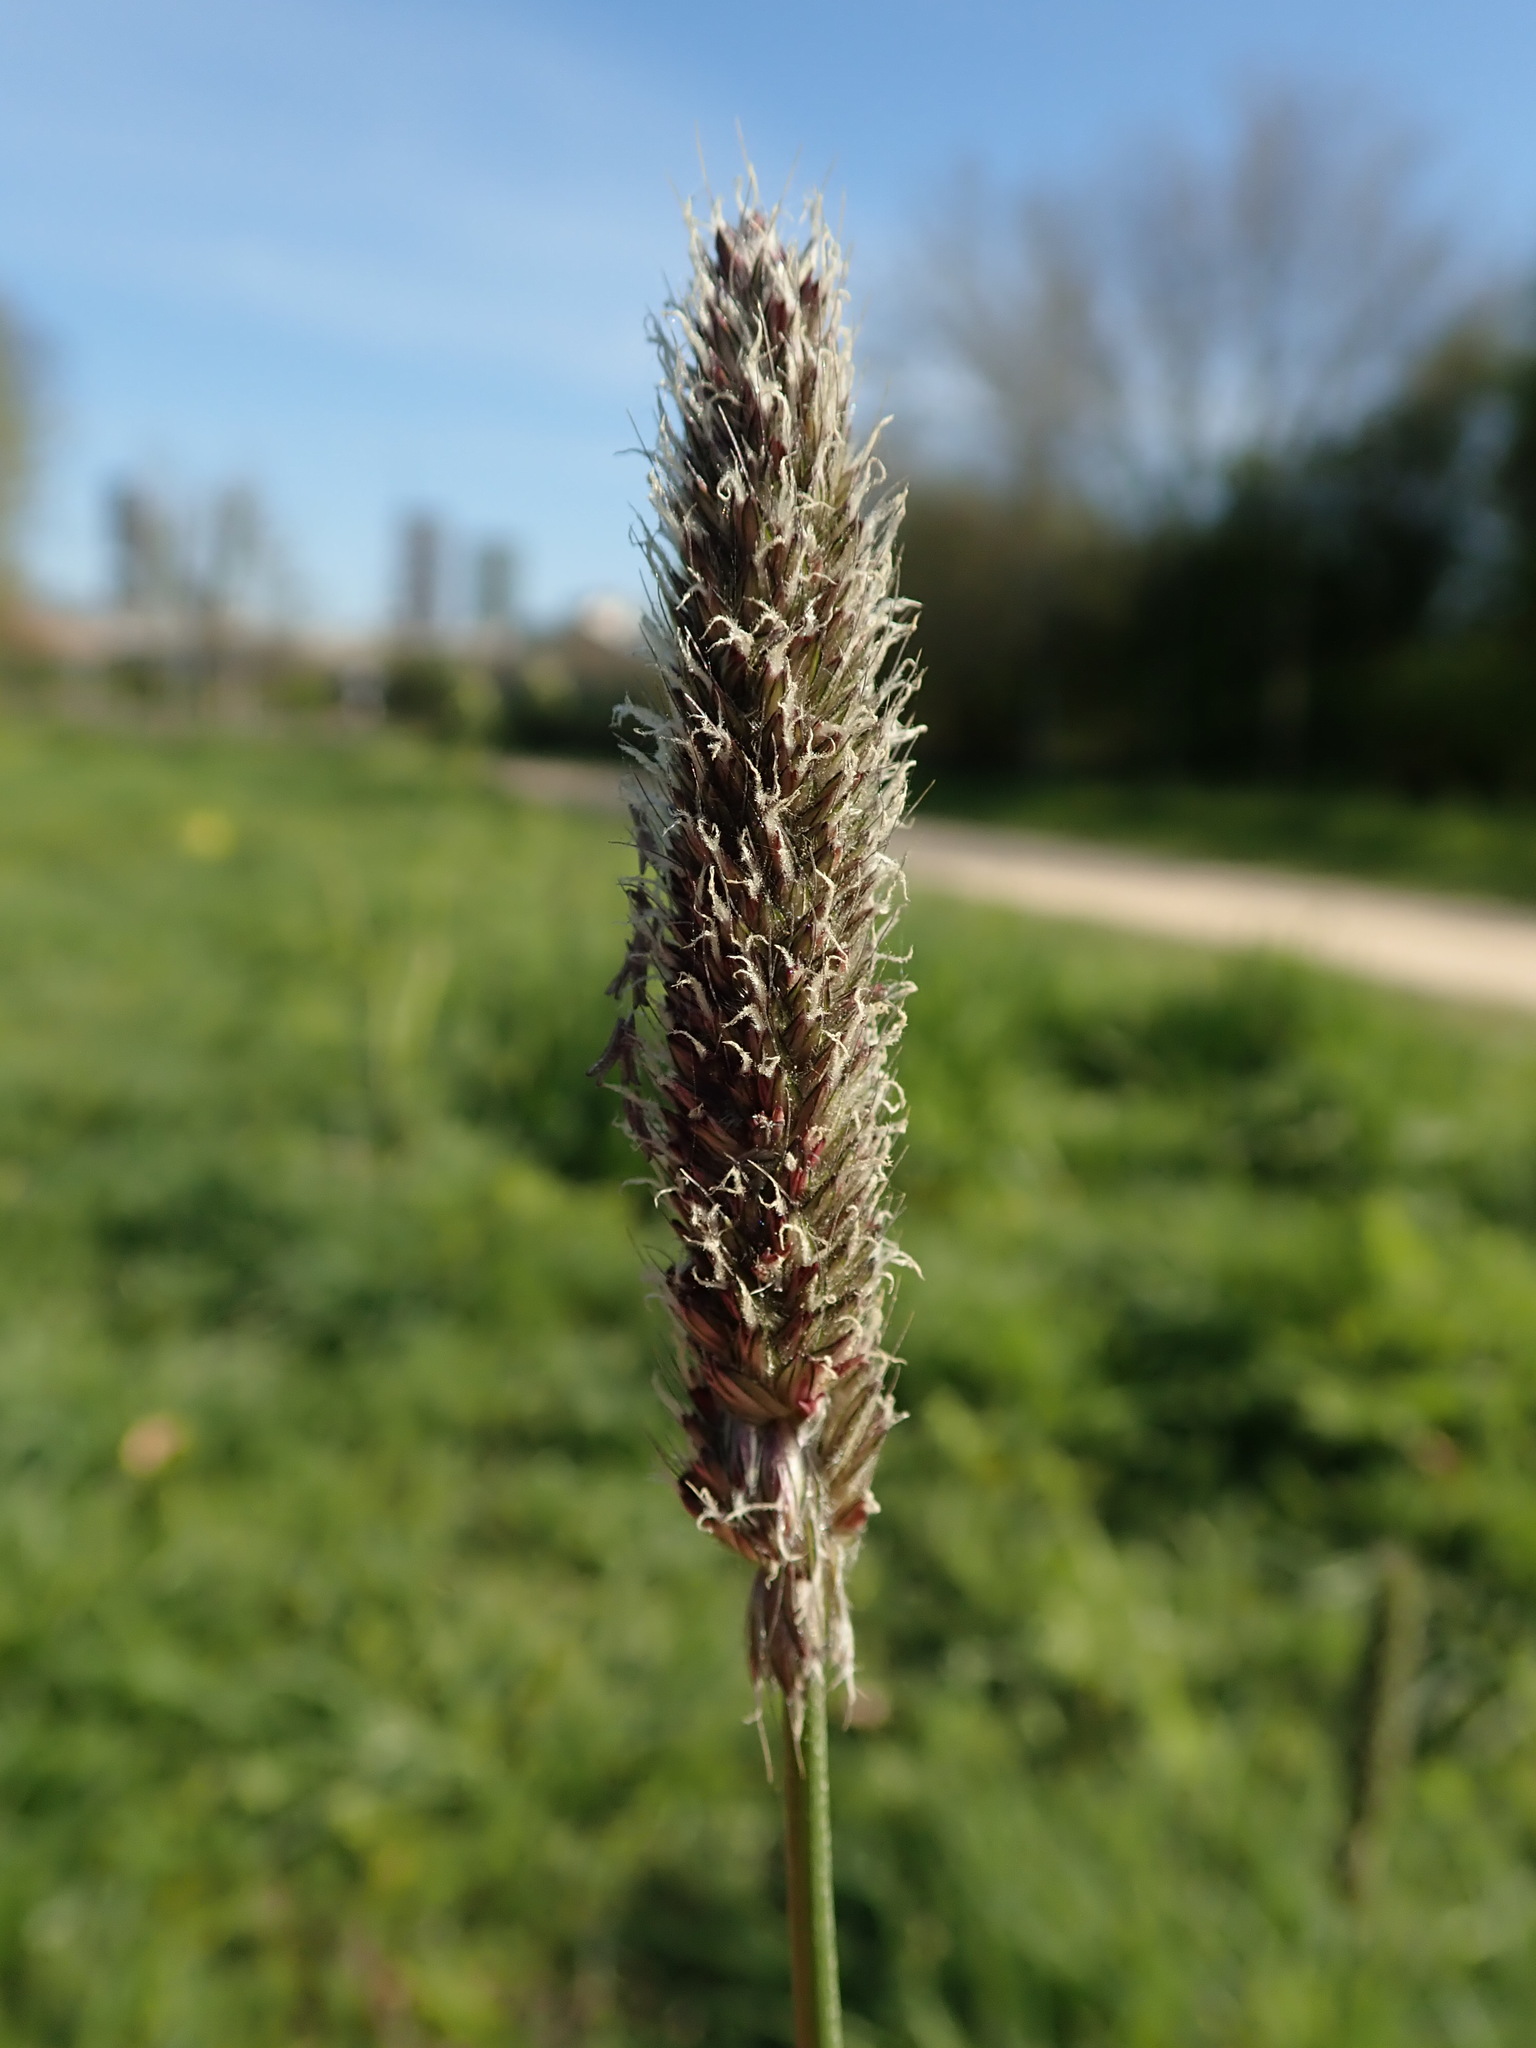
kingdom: Plantae
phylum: Tracheophyta
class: Liliopsida
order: Poales
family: Poaceae
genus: Alopecurus
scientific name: Alopecurus pratensis
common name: Meadow foxtail
